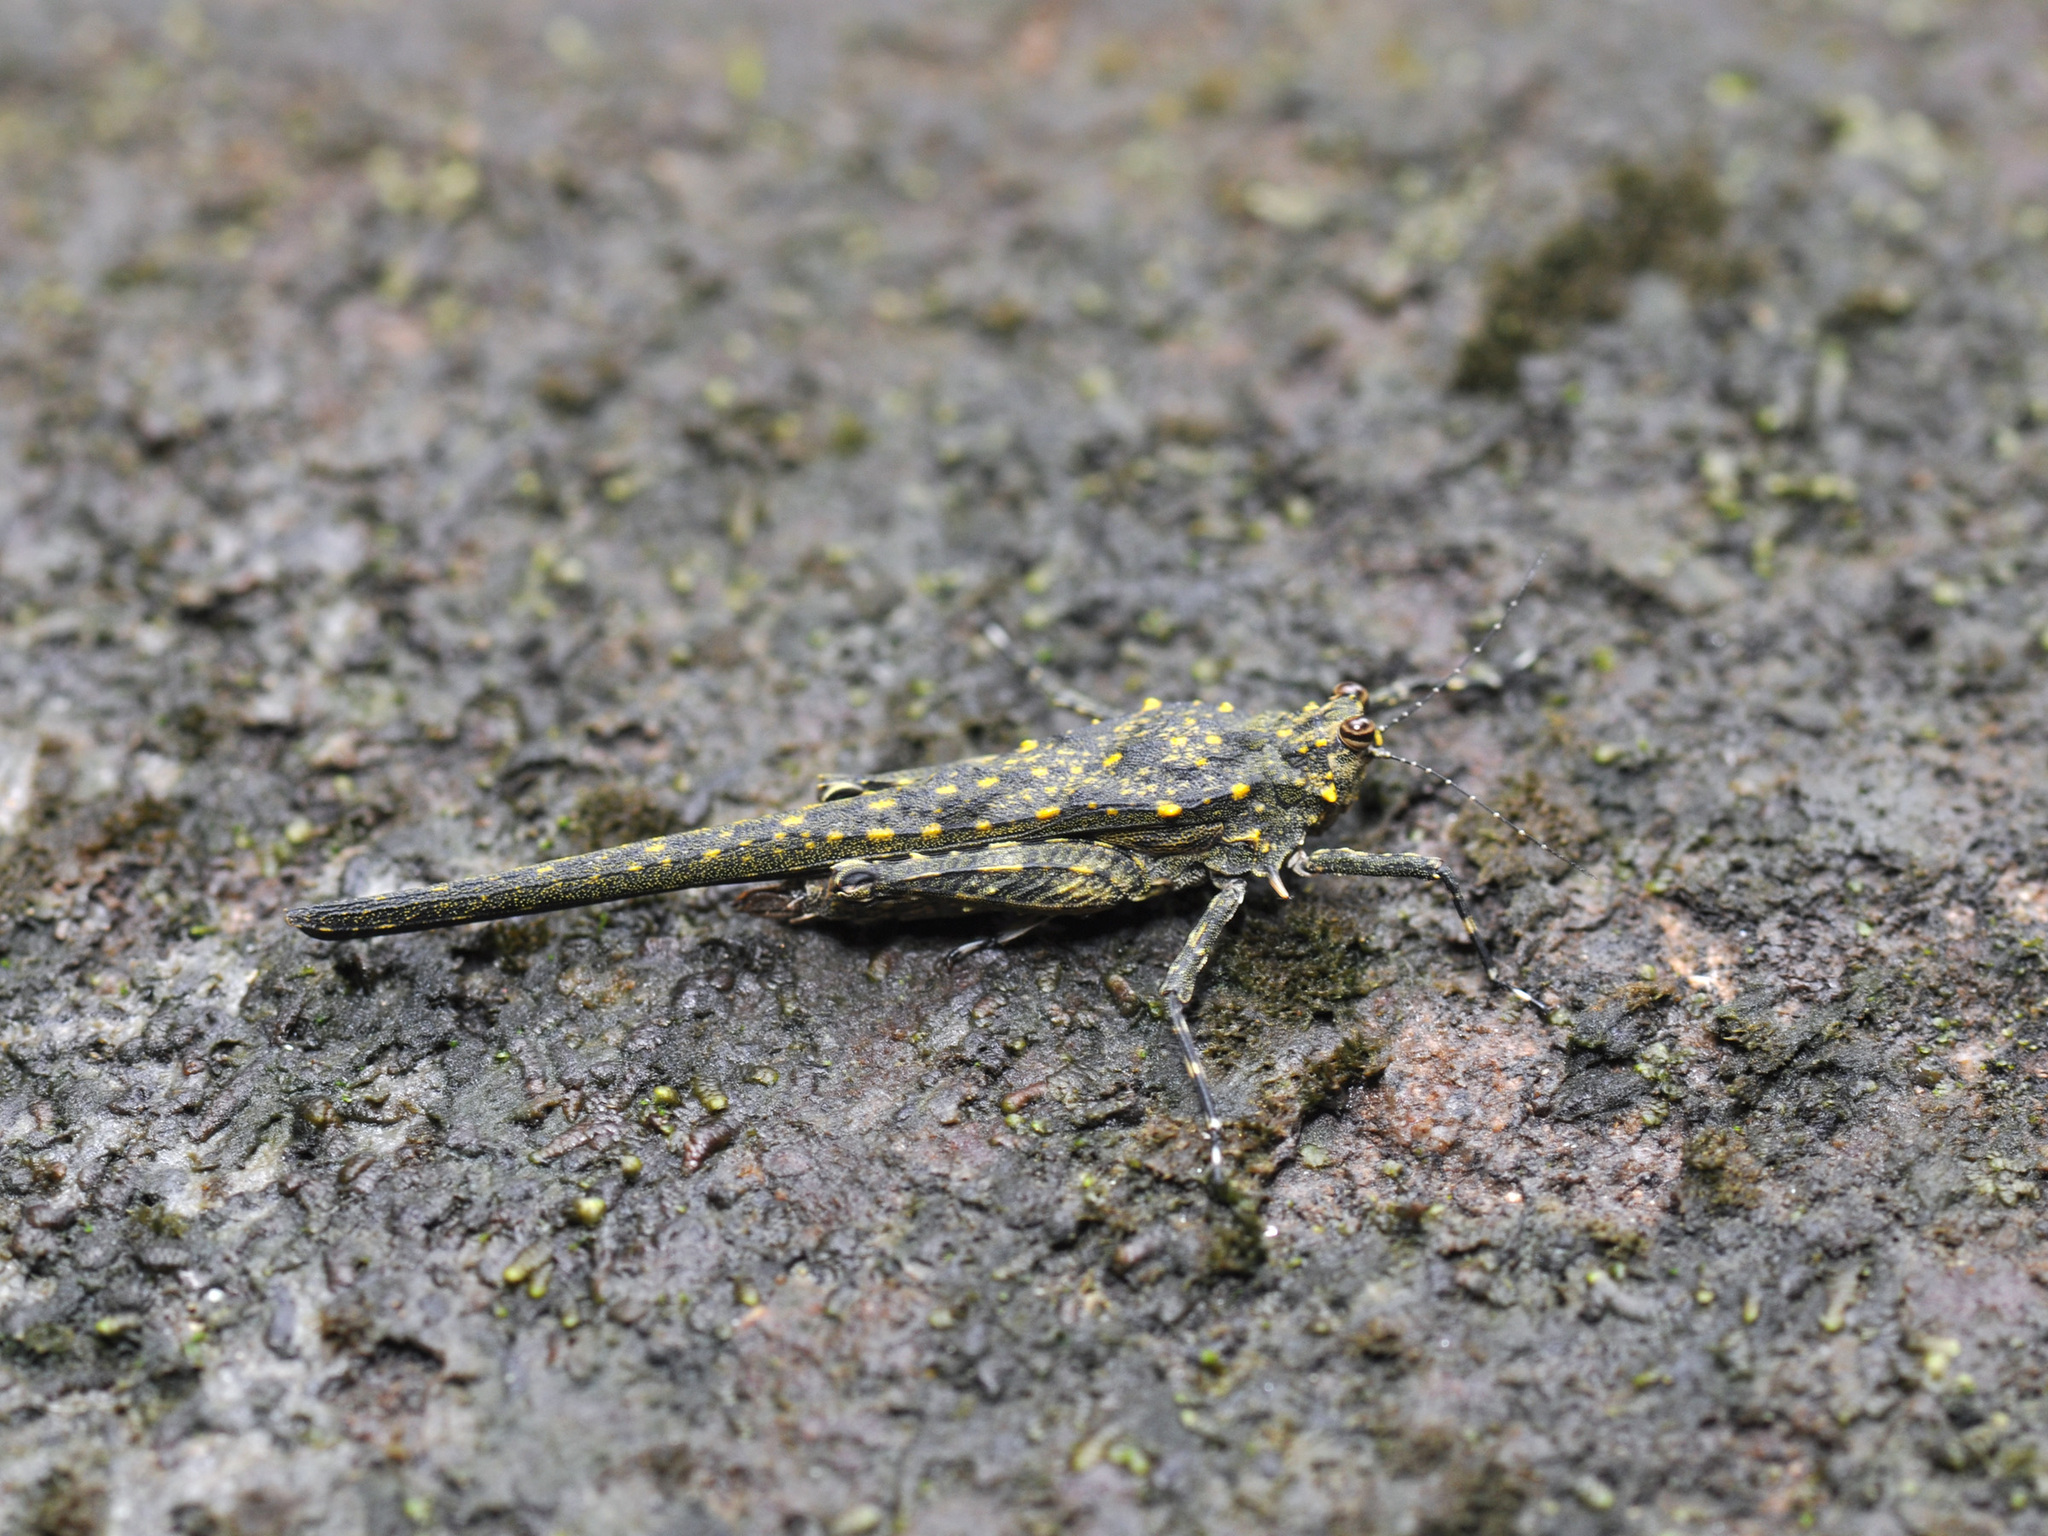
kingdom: Animalia
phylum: Arthropoda
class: Insecta
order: Orthoptera
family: Tetrigidae
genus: Scelimena
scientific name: Scelimena gombakensis
